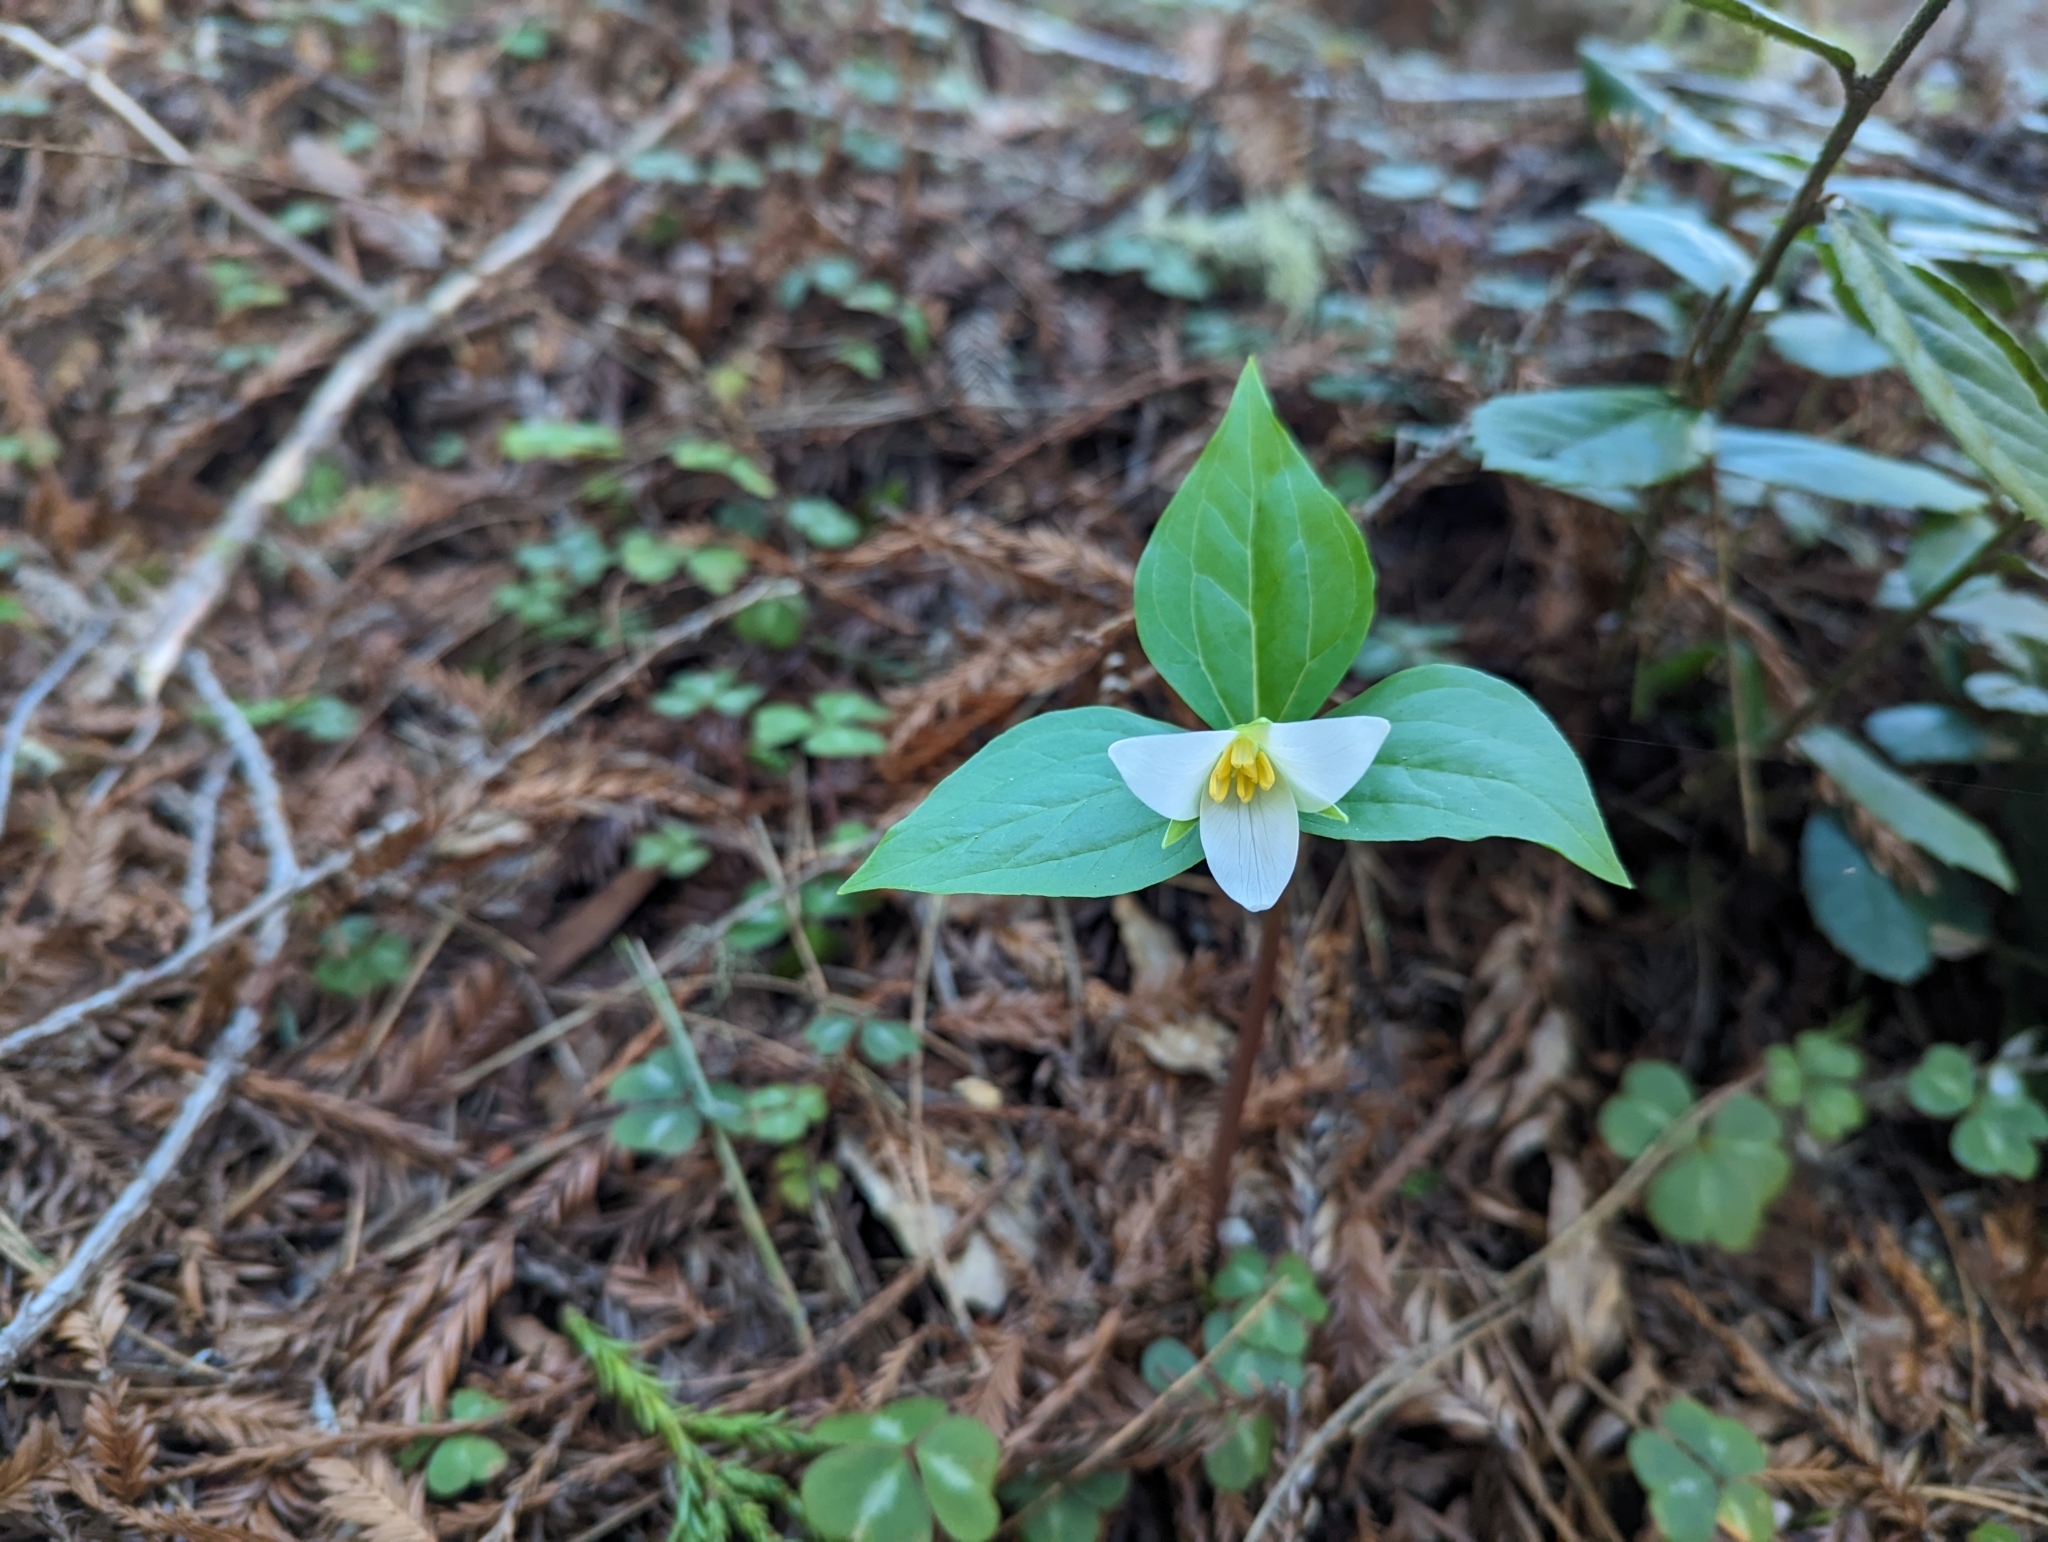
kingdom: Plantae
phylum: Tracheophyta
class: Liliopsida
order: Liliales
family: Melanthiaceae
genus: Trillium
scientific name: Trillium ovatum
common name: Pacific trillium
